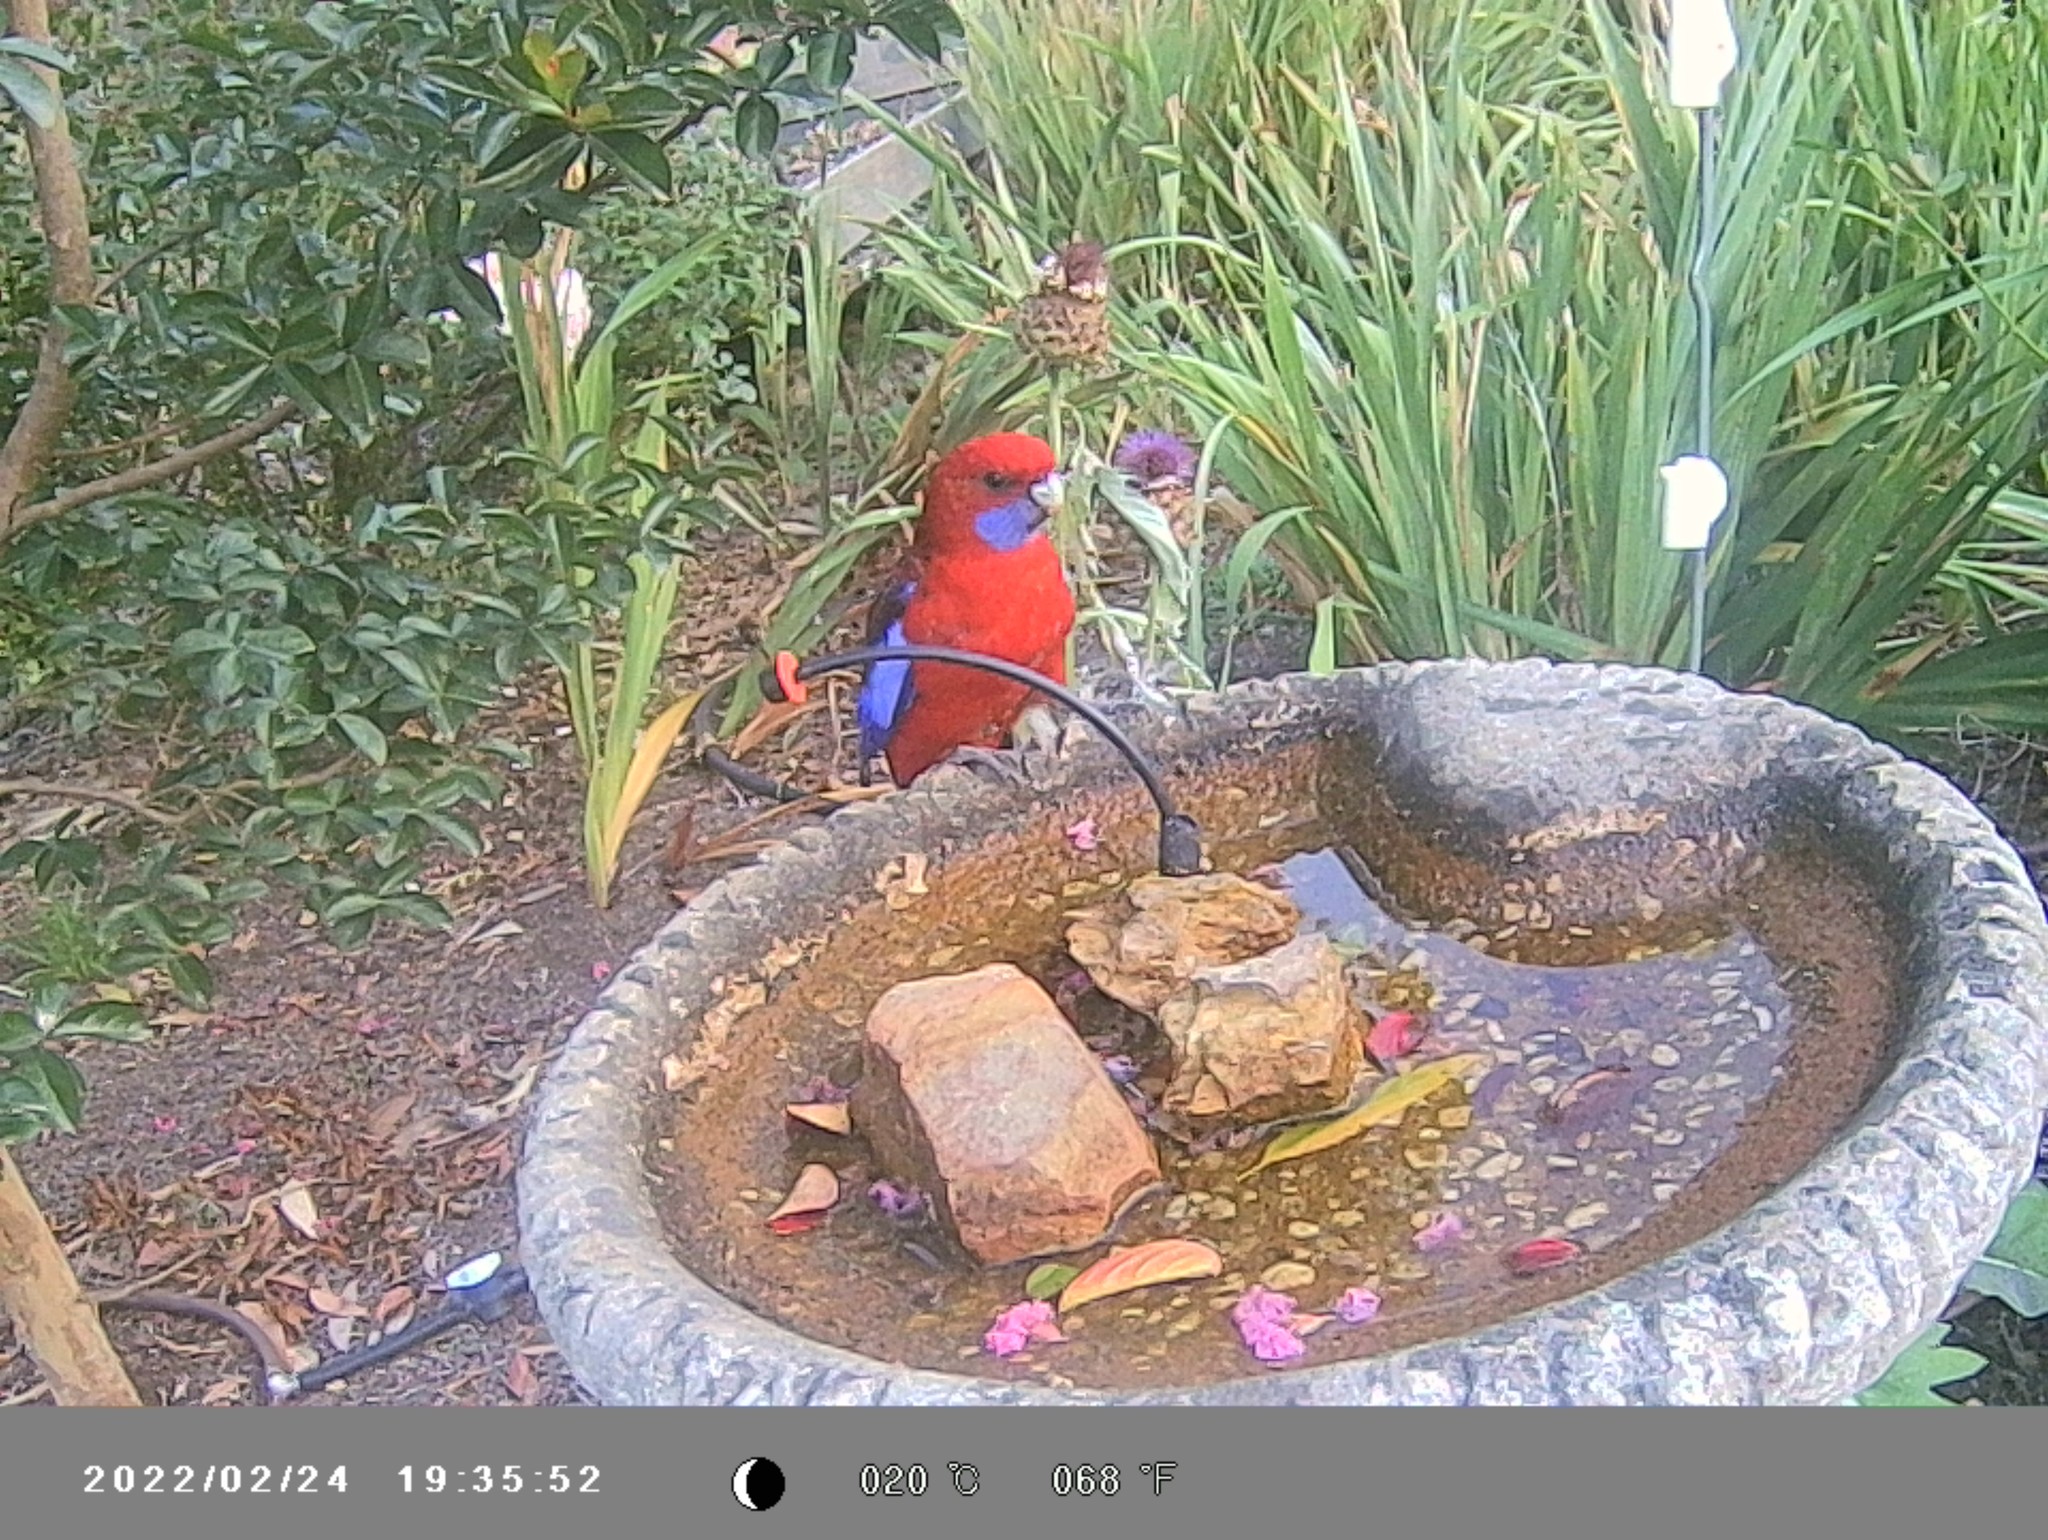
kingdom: Animalia
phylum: Chordata
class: Aves
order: Psittaciformes
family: Psittacidae
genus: Platycercus
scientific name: Platycercus elegans
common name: Crimson rosella
